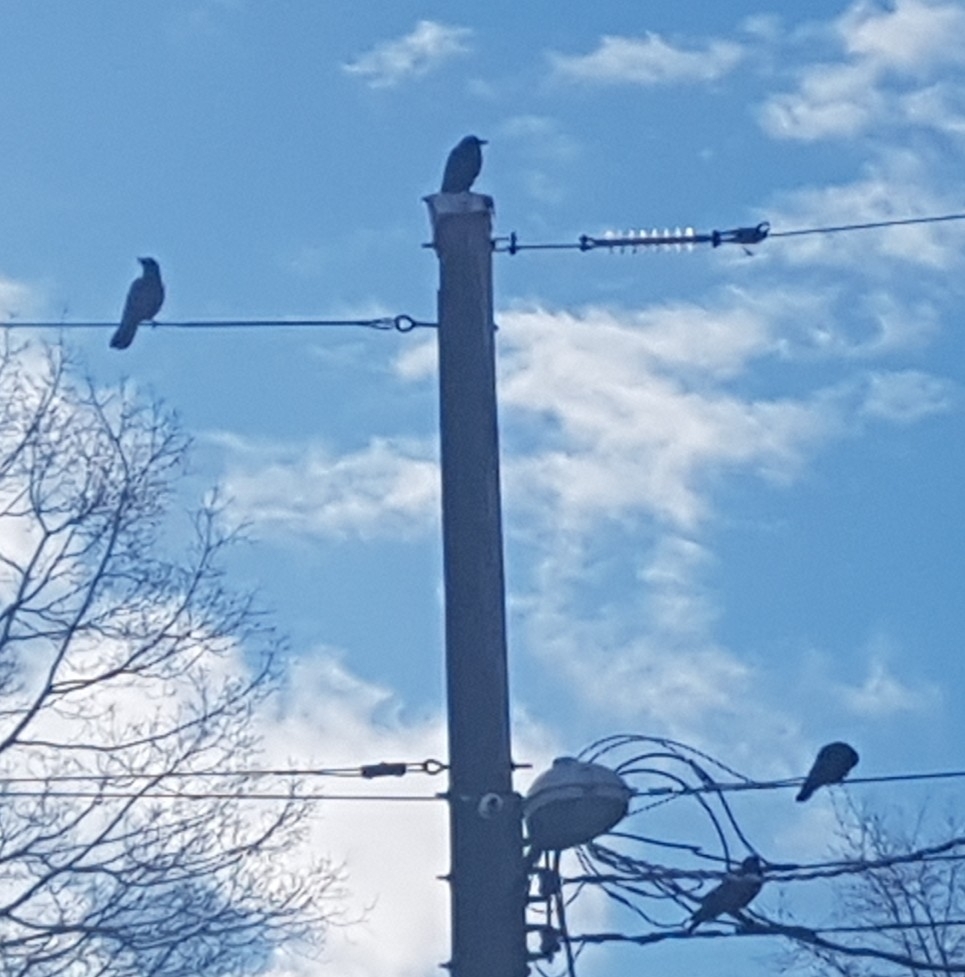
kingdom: Animalia
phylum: Chordata
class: Aves
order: Passeriformes
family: Corvidae
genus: Corvus
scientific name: Corvus brachyrhynchos
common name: American crow
